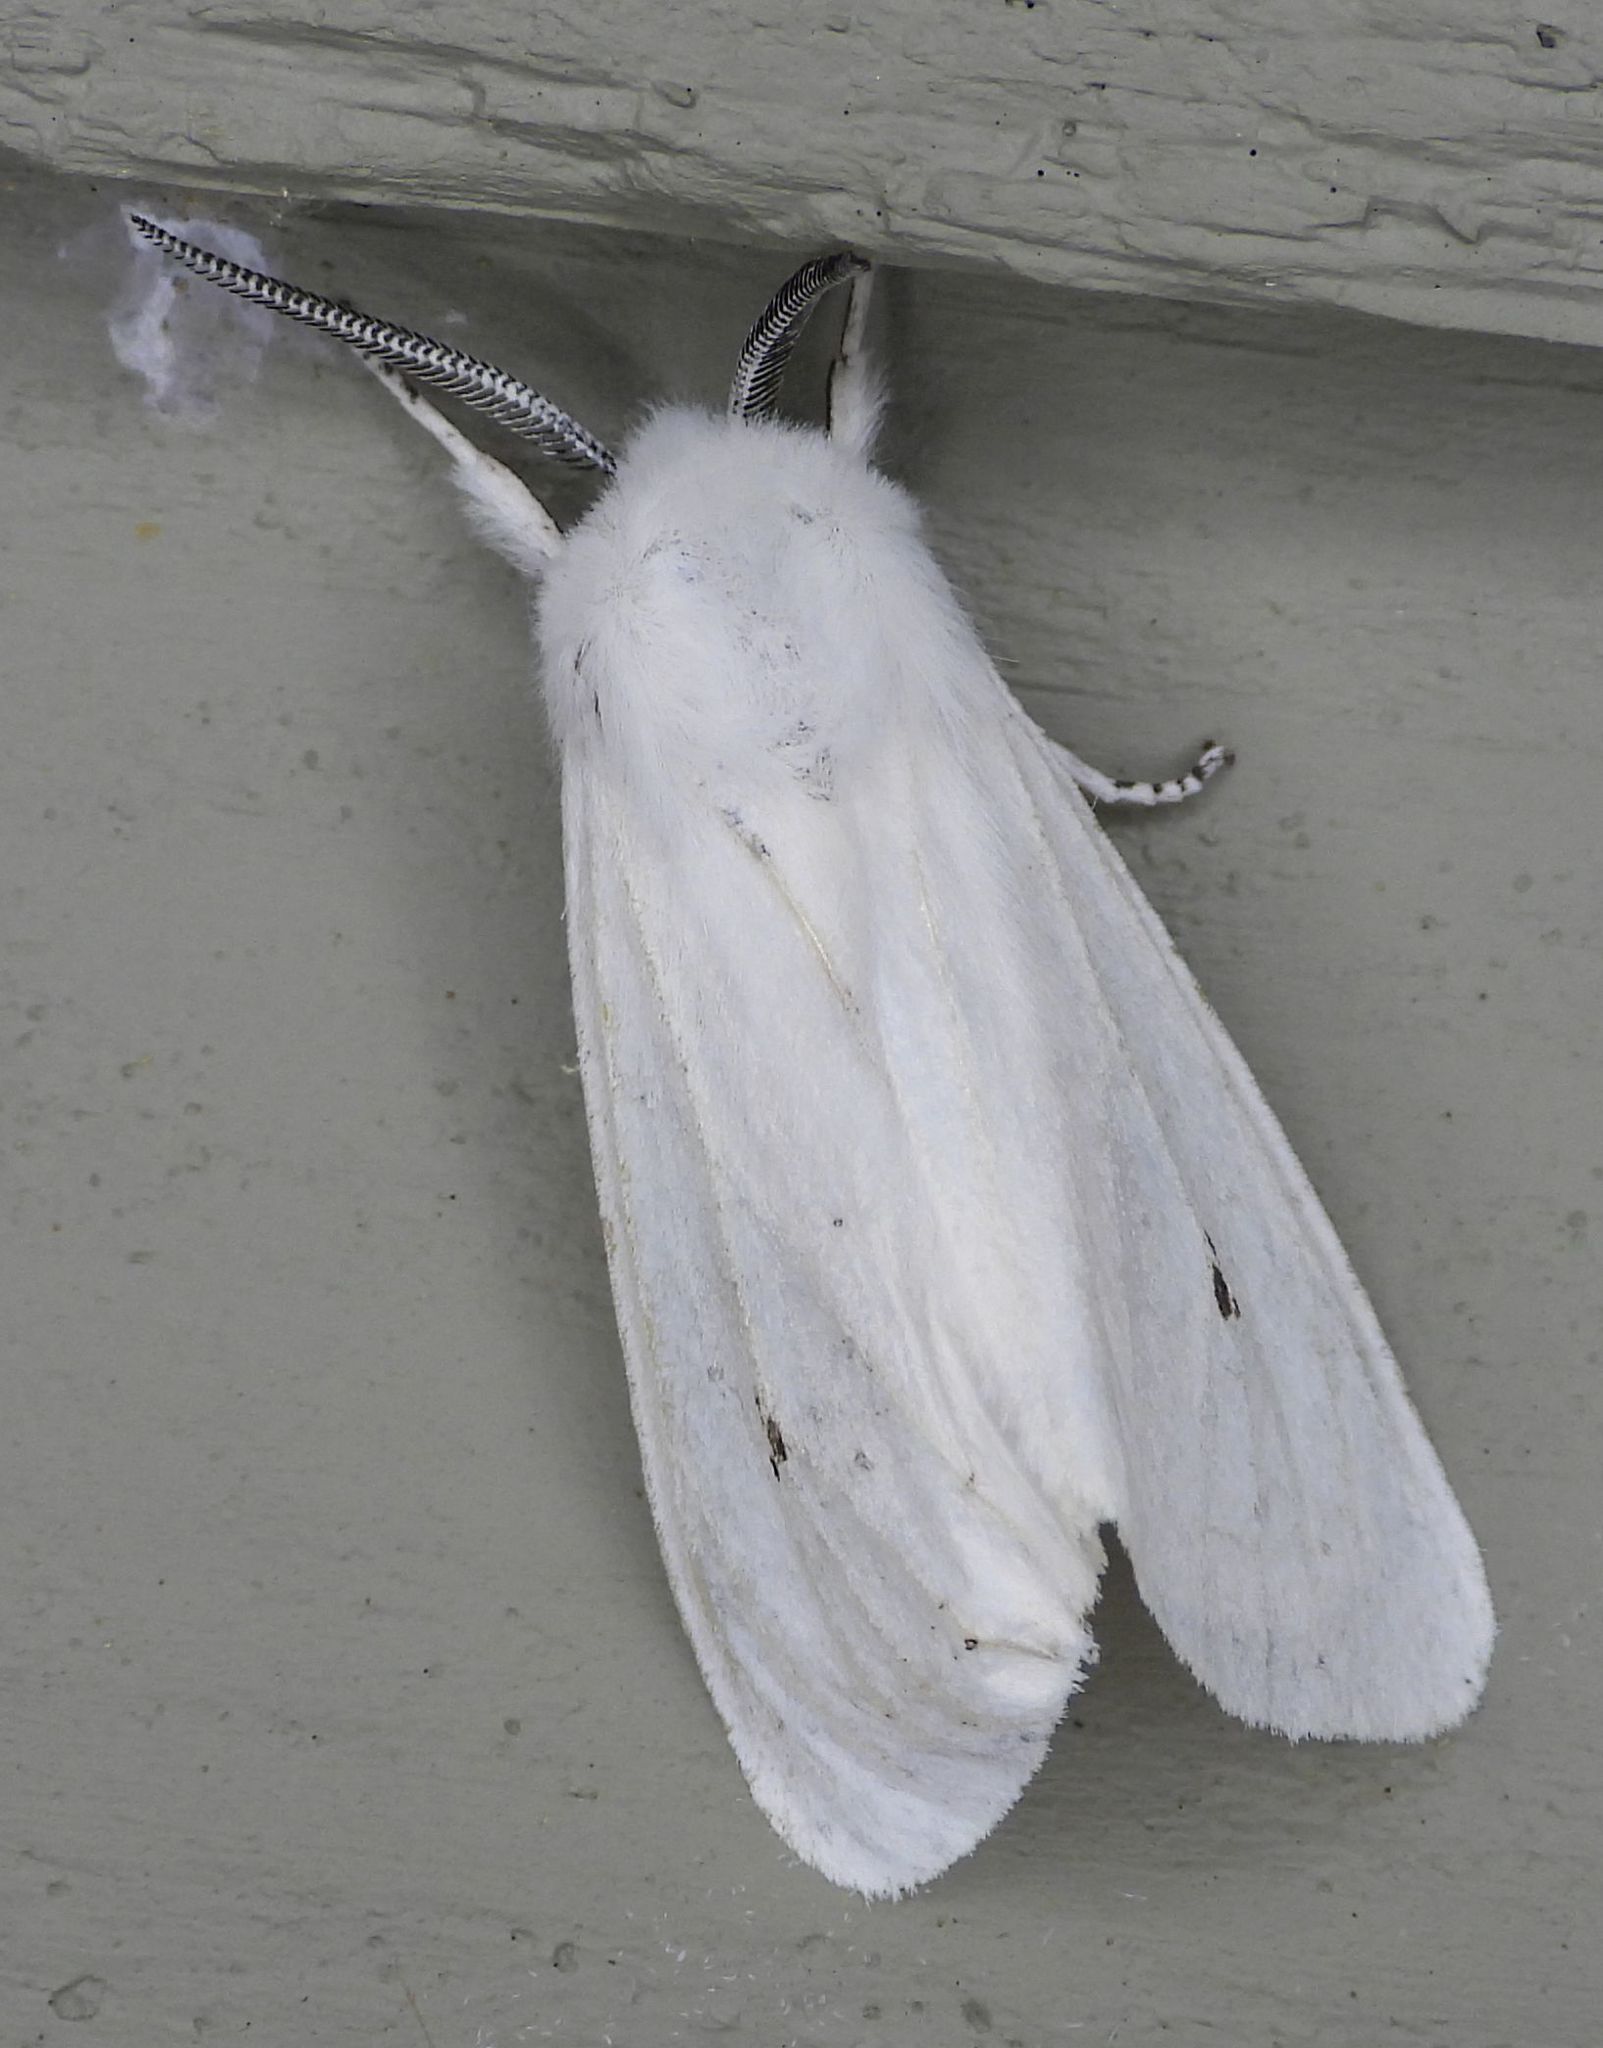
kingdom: Animalia
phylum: Arthropoda
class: Insecta
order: Lepidoptera
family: Erebidae
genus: Spilosoma
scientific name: Spilosoma virginica
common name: Virginia tiger moth
